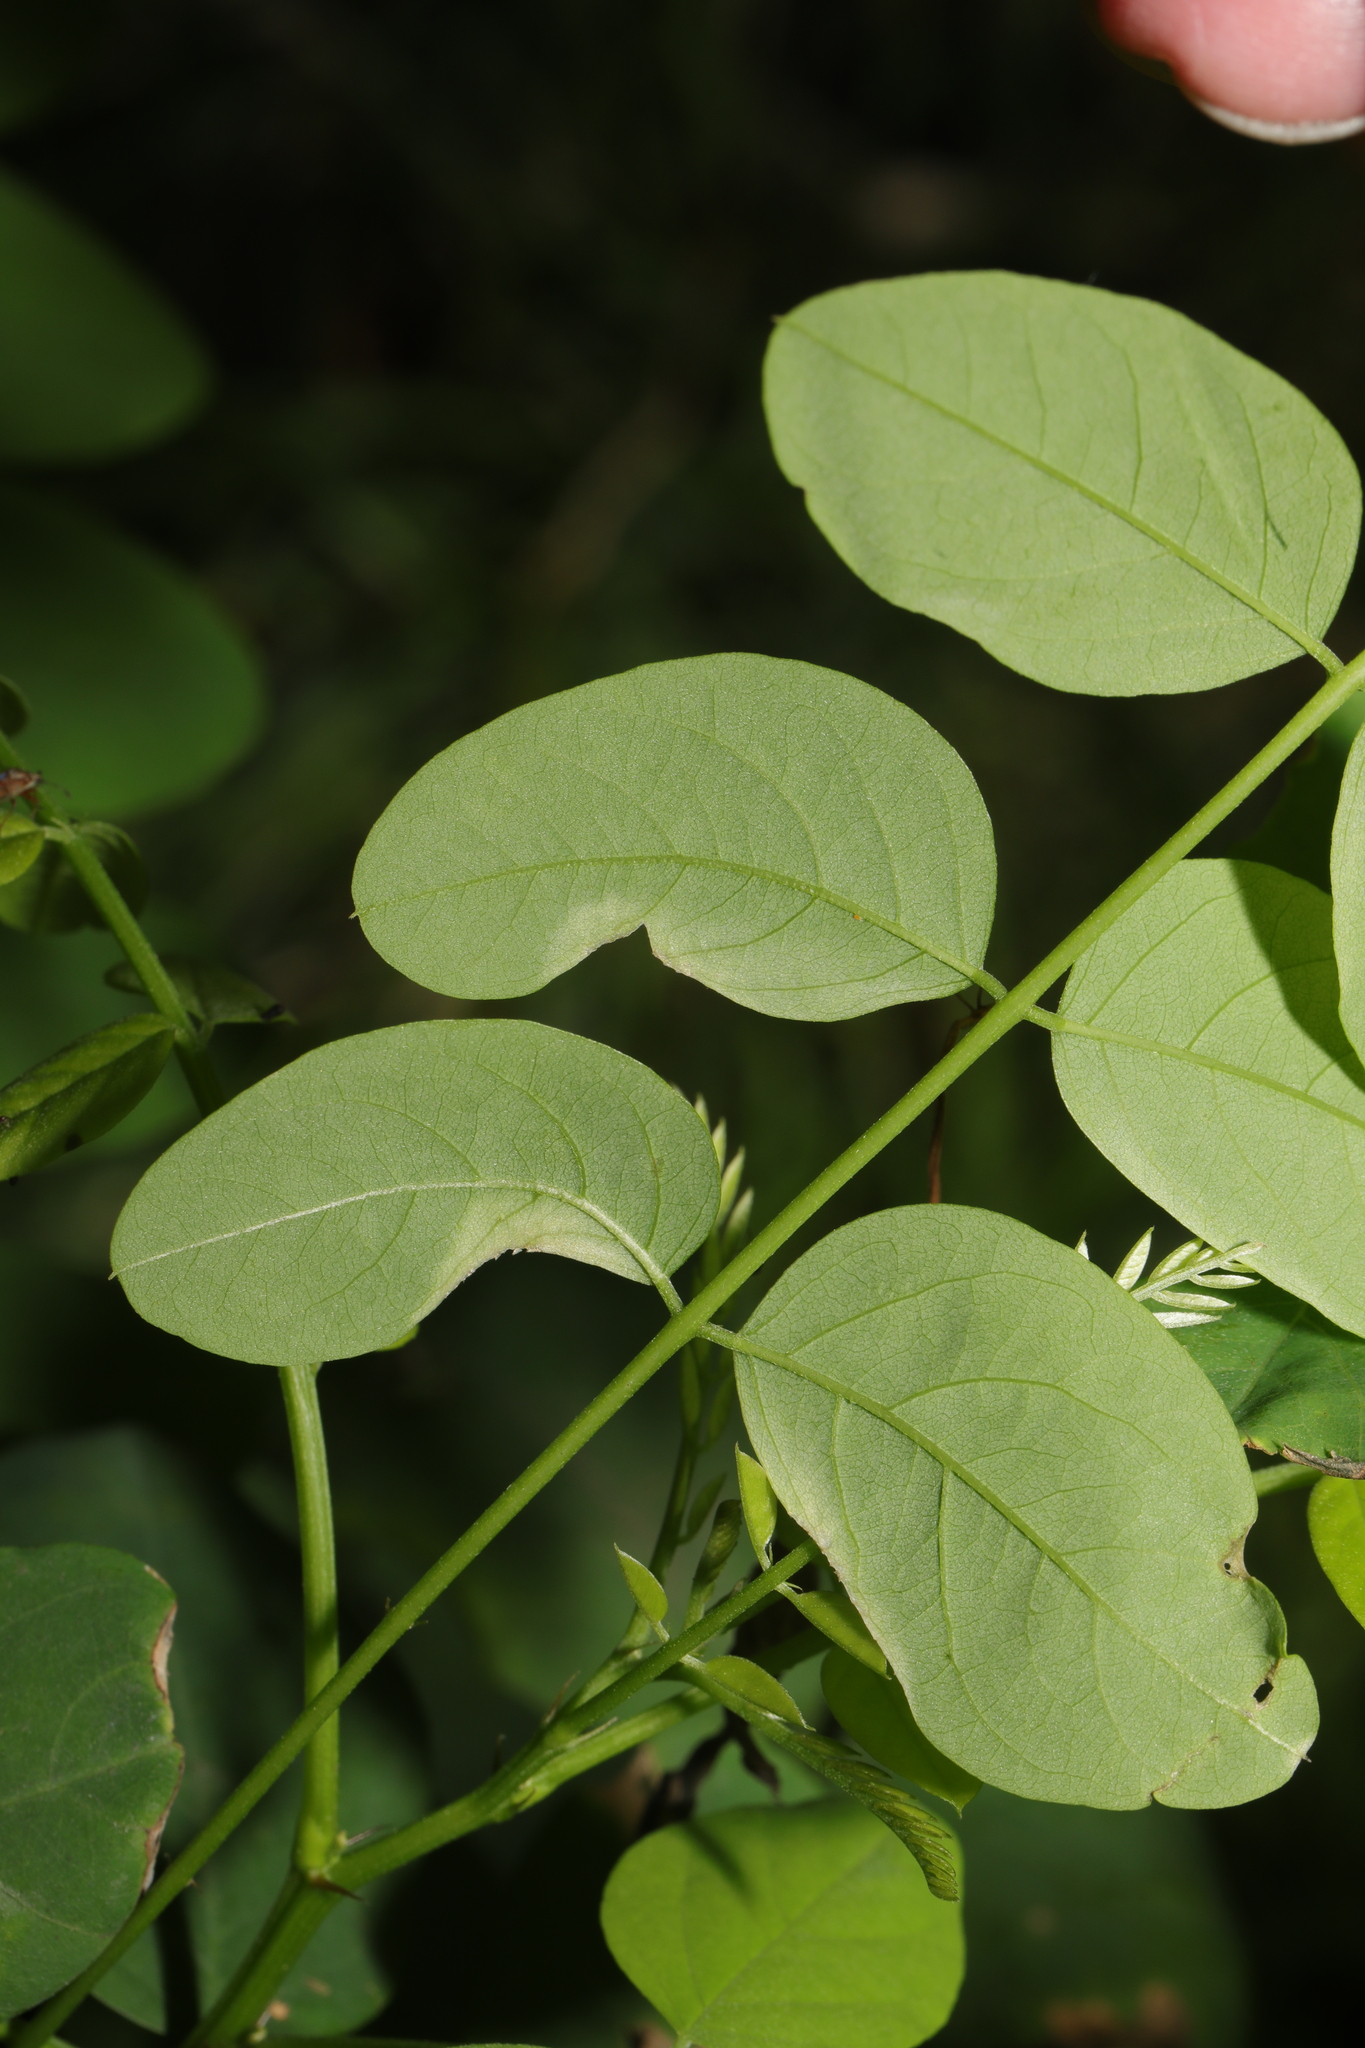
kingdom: Animalia
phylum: Arthropoda
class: Insecta
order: Diptera
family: Cecidomyiidae
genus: Obolodiplosis
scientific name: Obolodiplosis robiniae
